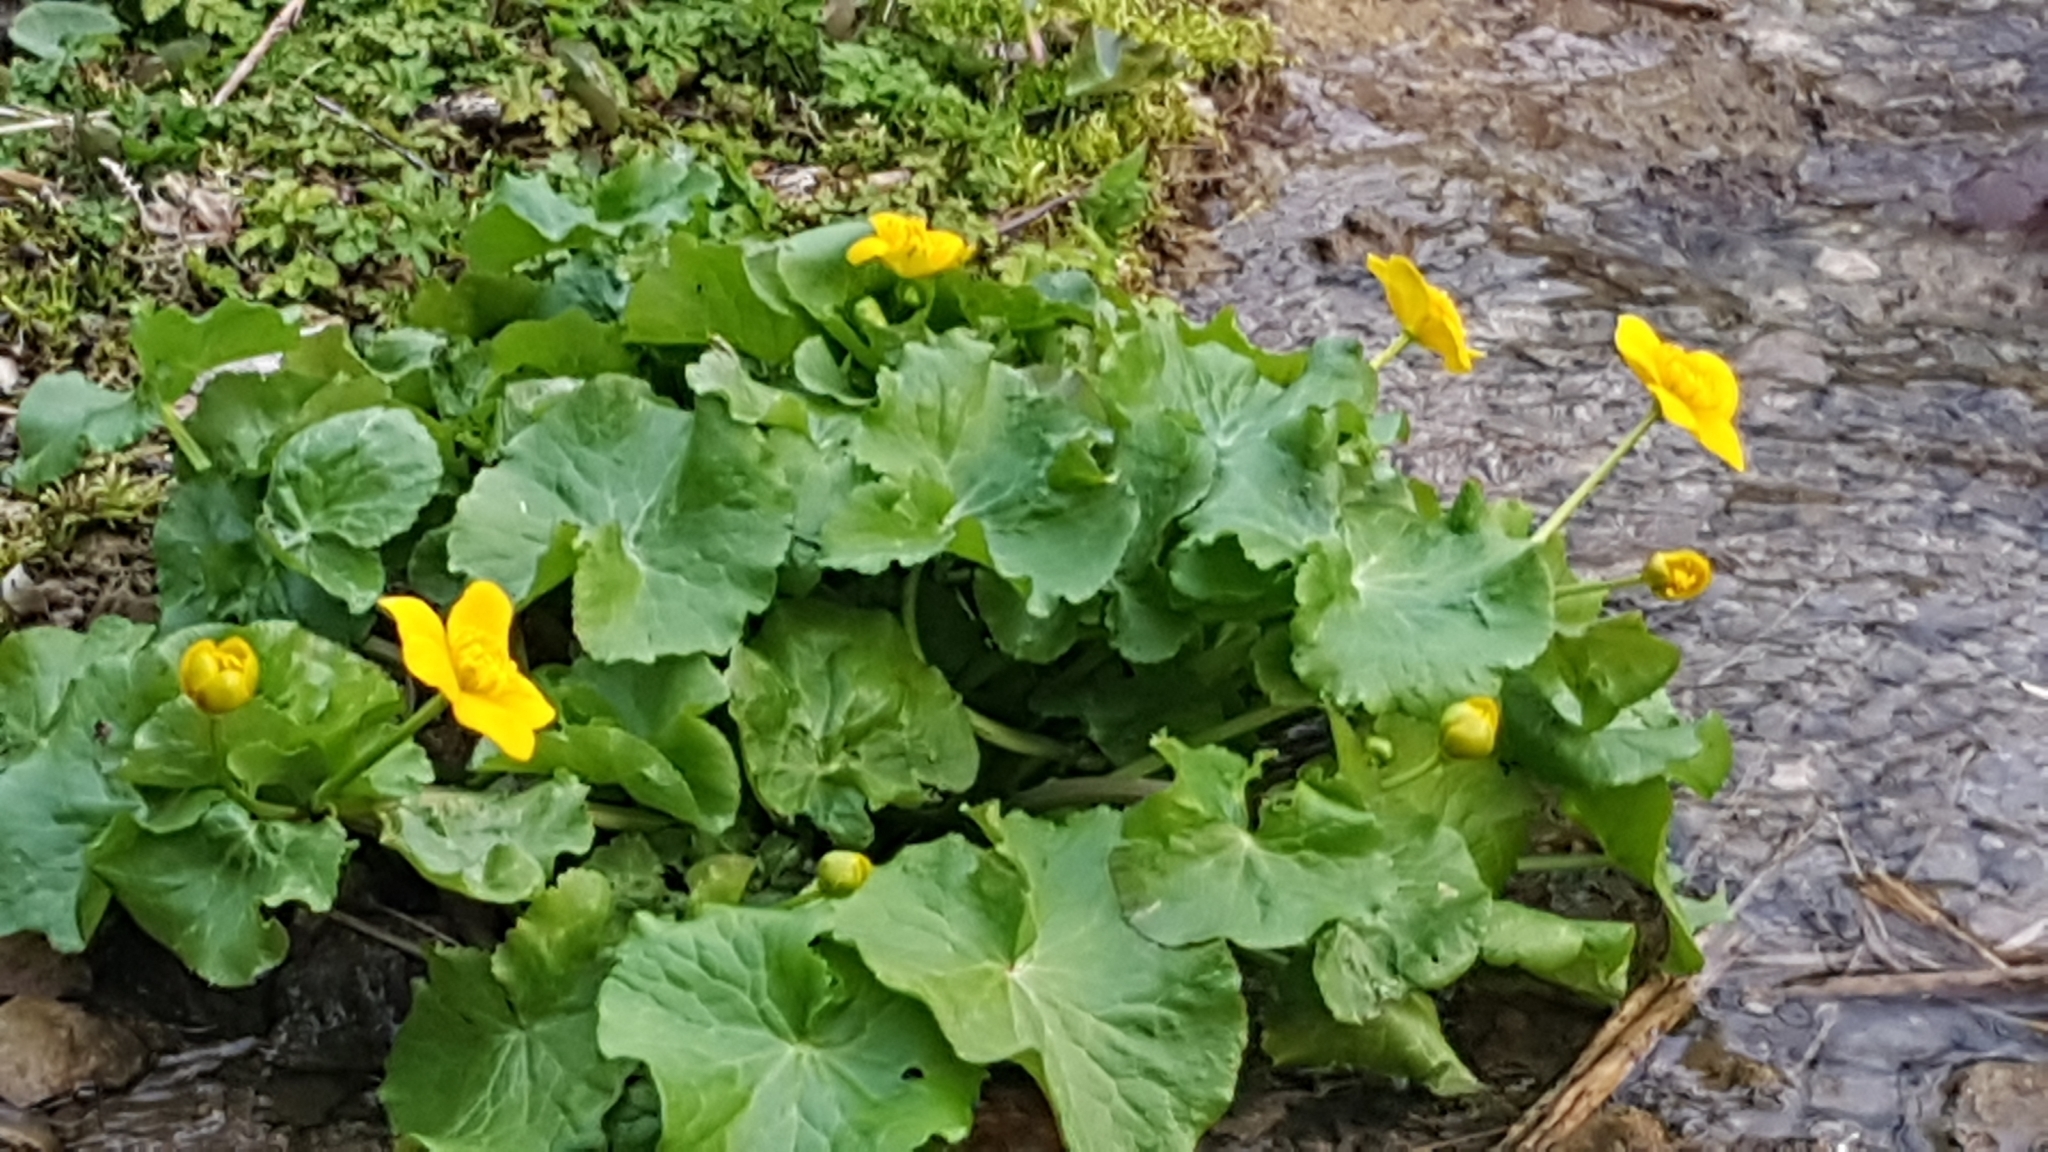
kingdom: Plantae
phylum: Tracheophyta
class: Magnoliopsida
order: Ranunculales
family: Ranunculaceae
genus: Caltha
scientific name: Caltha palustris
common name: Marsh marigold
